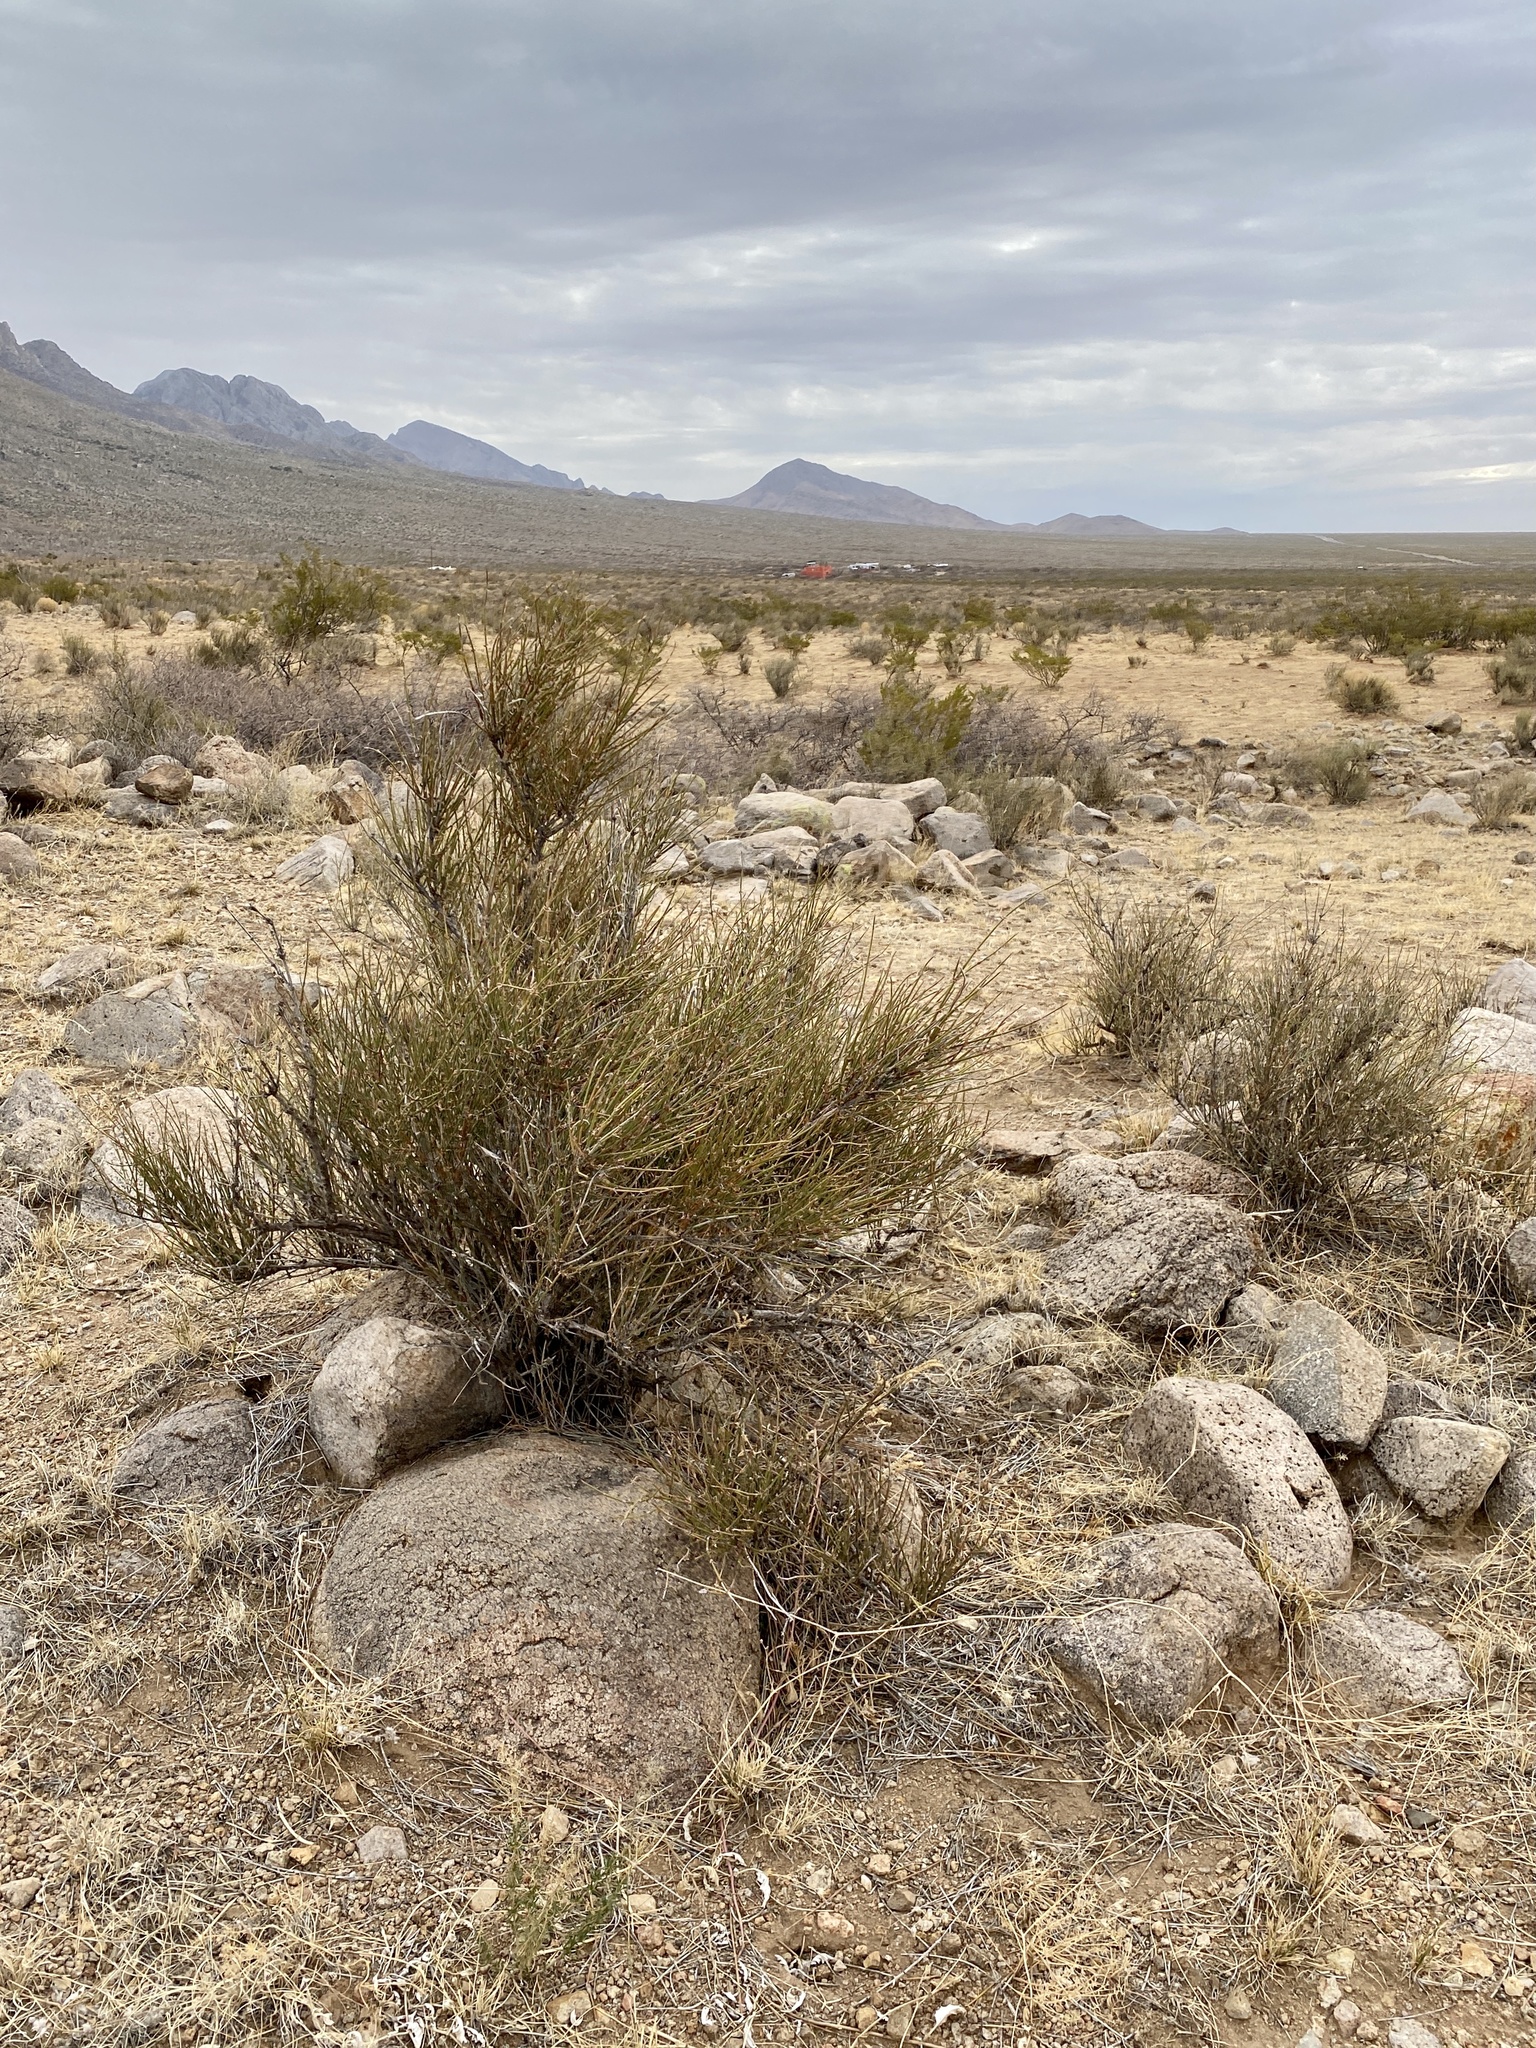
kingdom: Plantae
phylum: Tracheophyta
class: Gnetopsida
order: Ephedrales
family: Ephedraceae
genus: Ephedra
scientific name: Ephedra trifurca
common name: Mexican-tea
